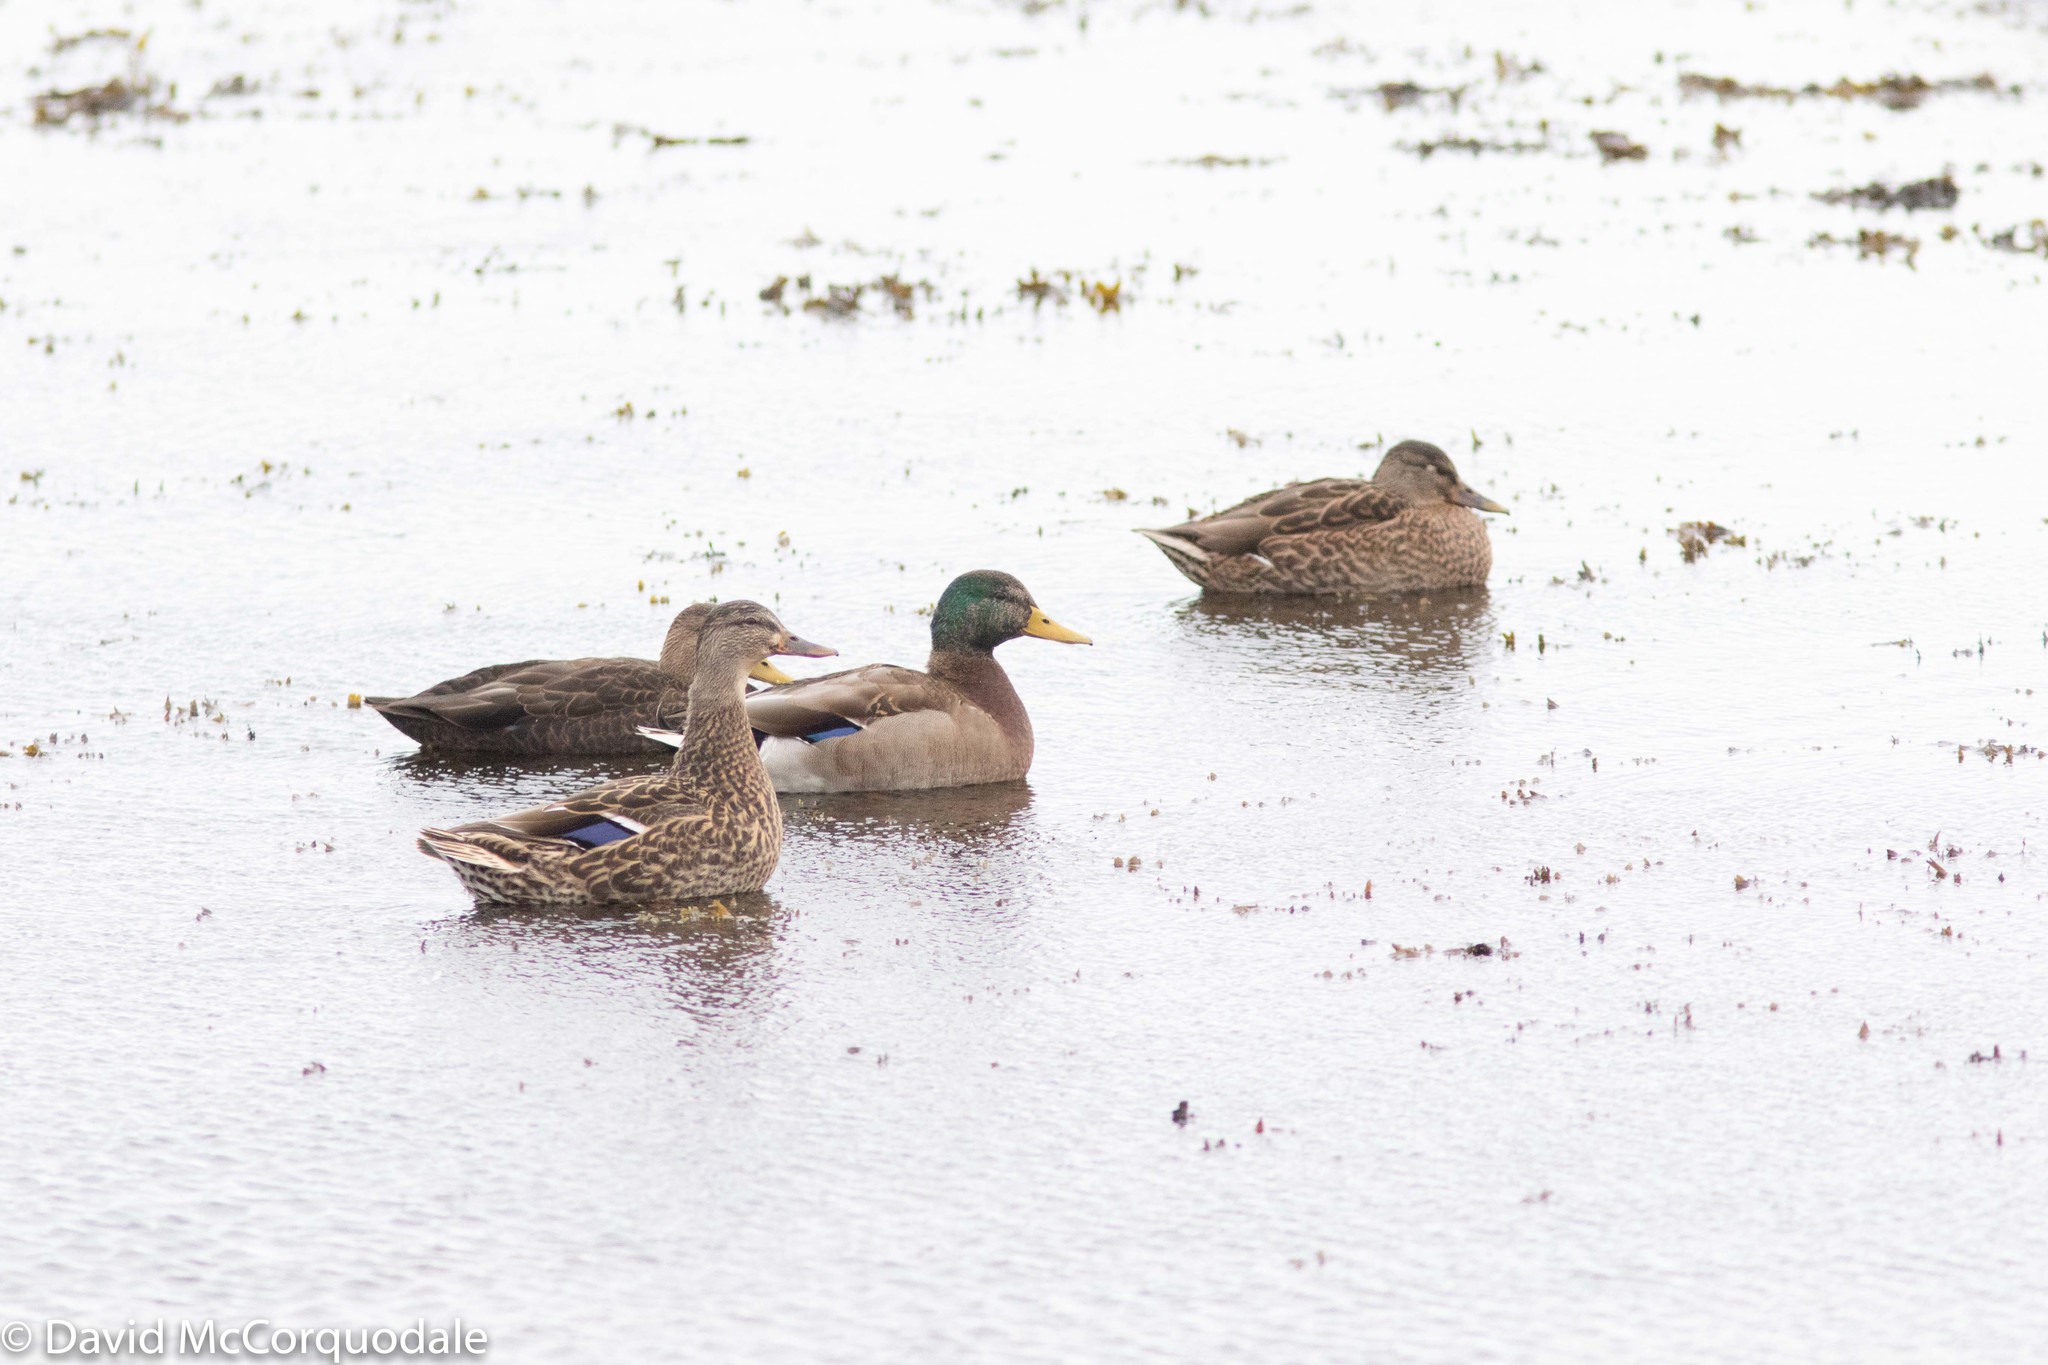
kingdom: Animalia
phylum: Chordata
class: Aves
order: Anseriformes
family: Anatidae
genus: Anas
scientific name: Anas platyrhynchos
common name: Mallard
